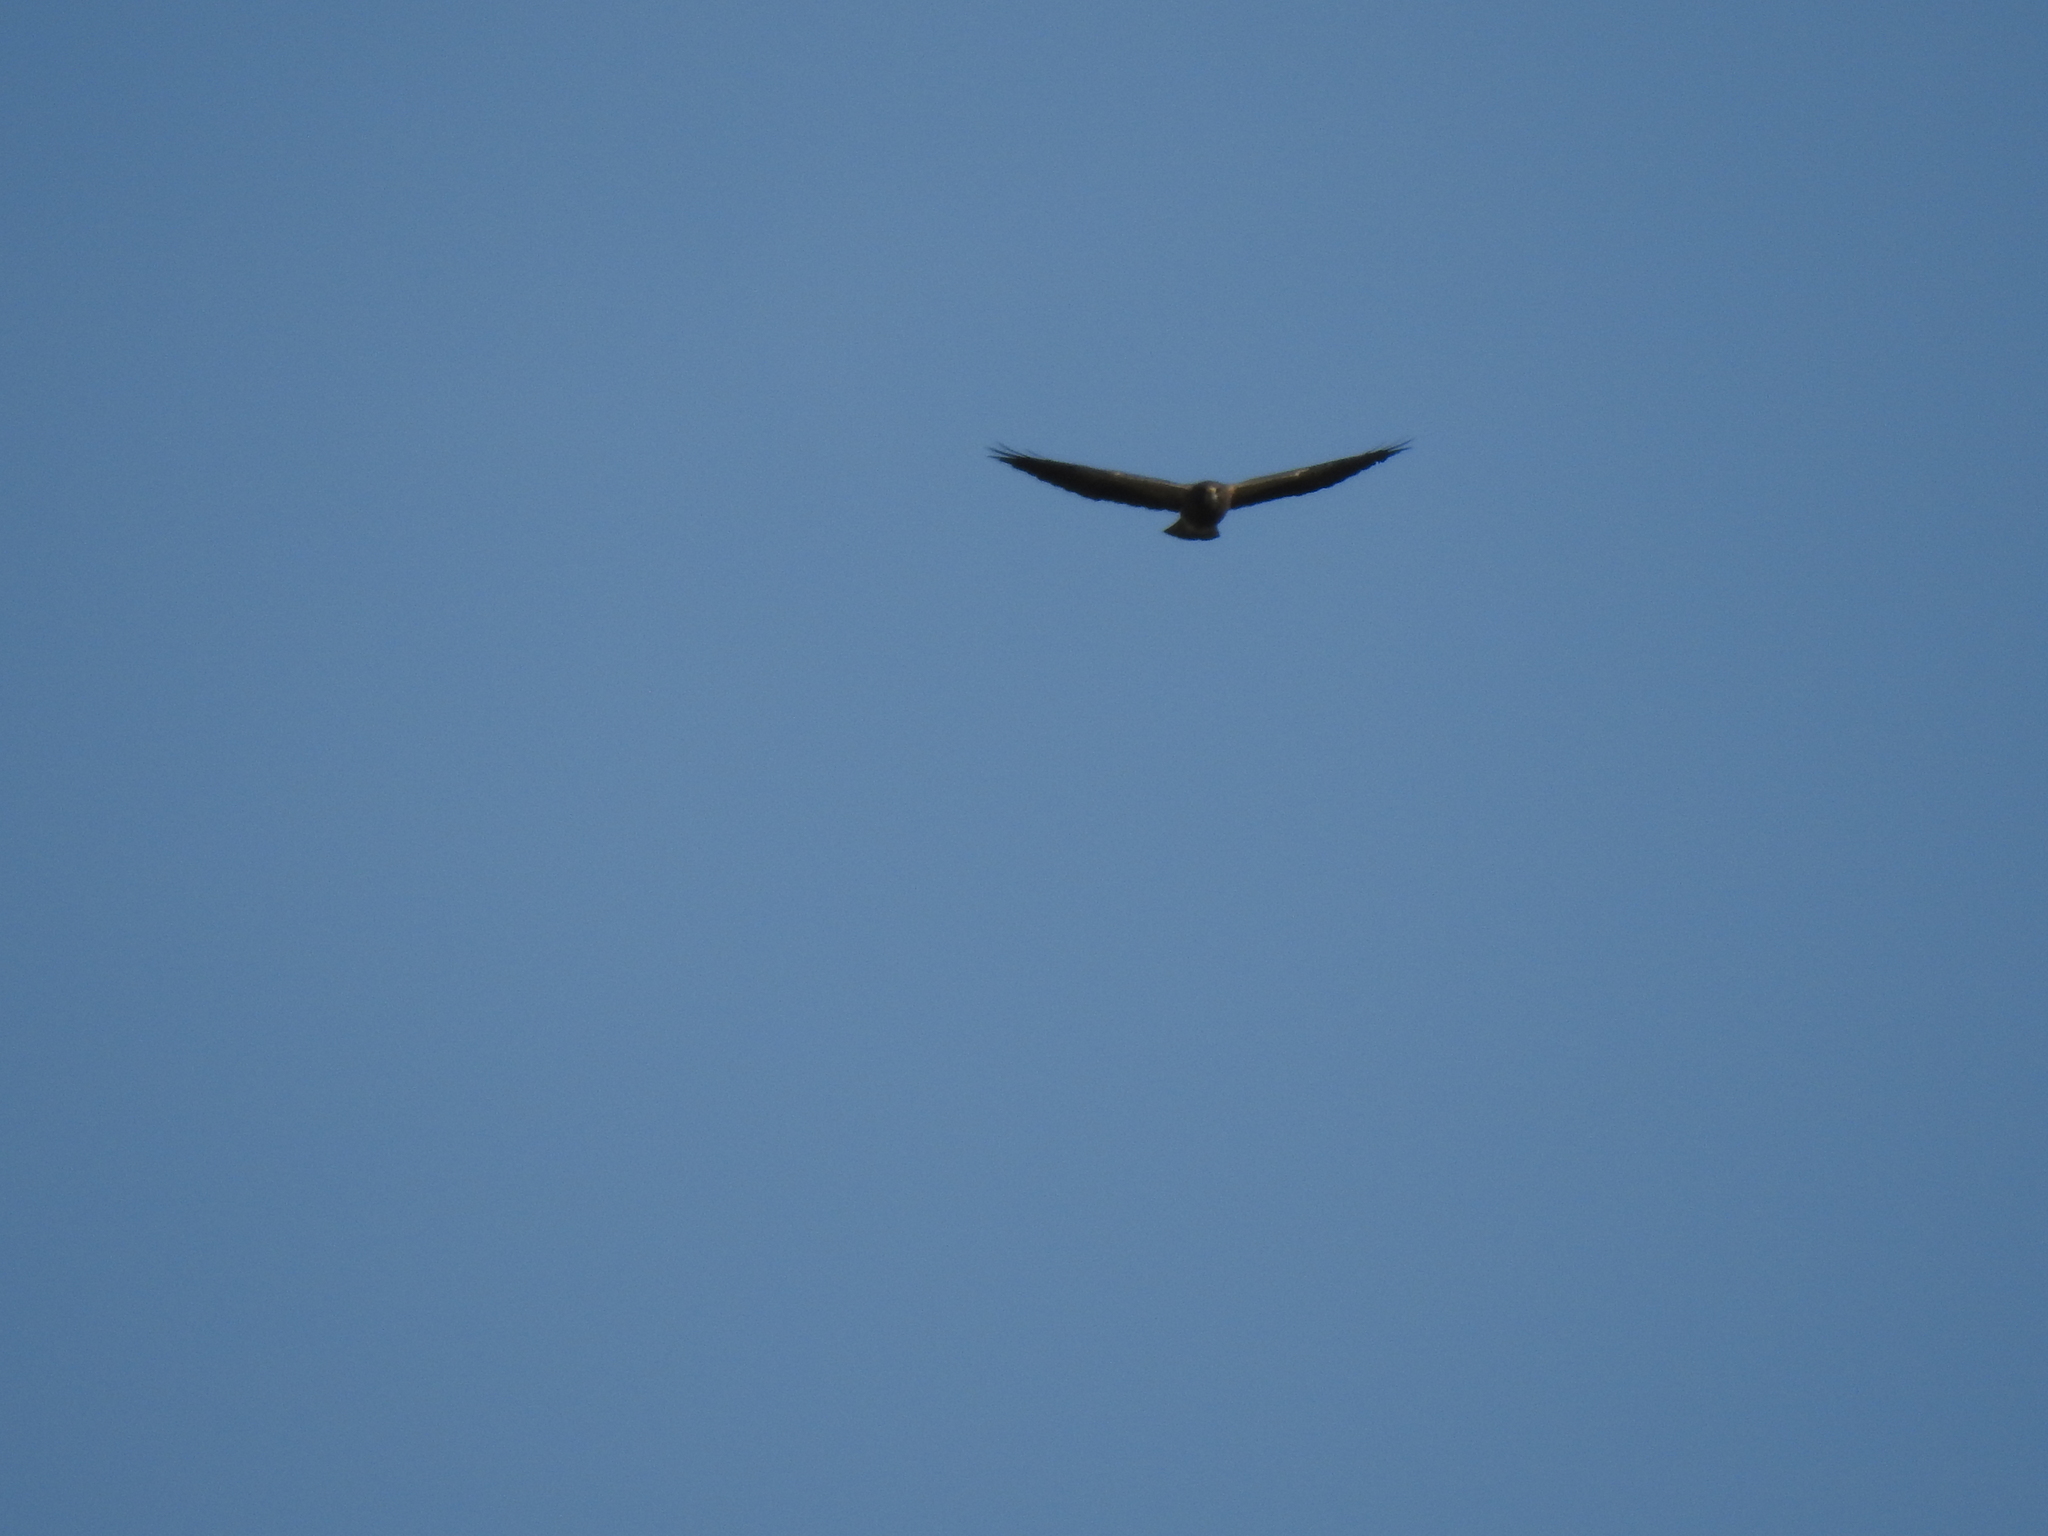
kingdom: Animalia
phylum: Chordata
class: Aves
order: Accipitriformes
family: Accipitridae
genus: Buteo
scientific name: Buteo swainsoni
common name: Swainson's hawk
